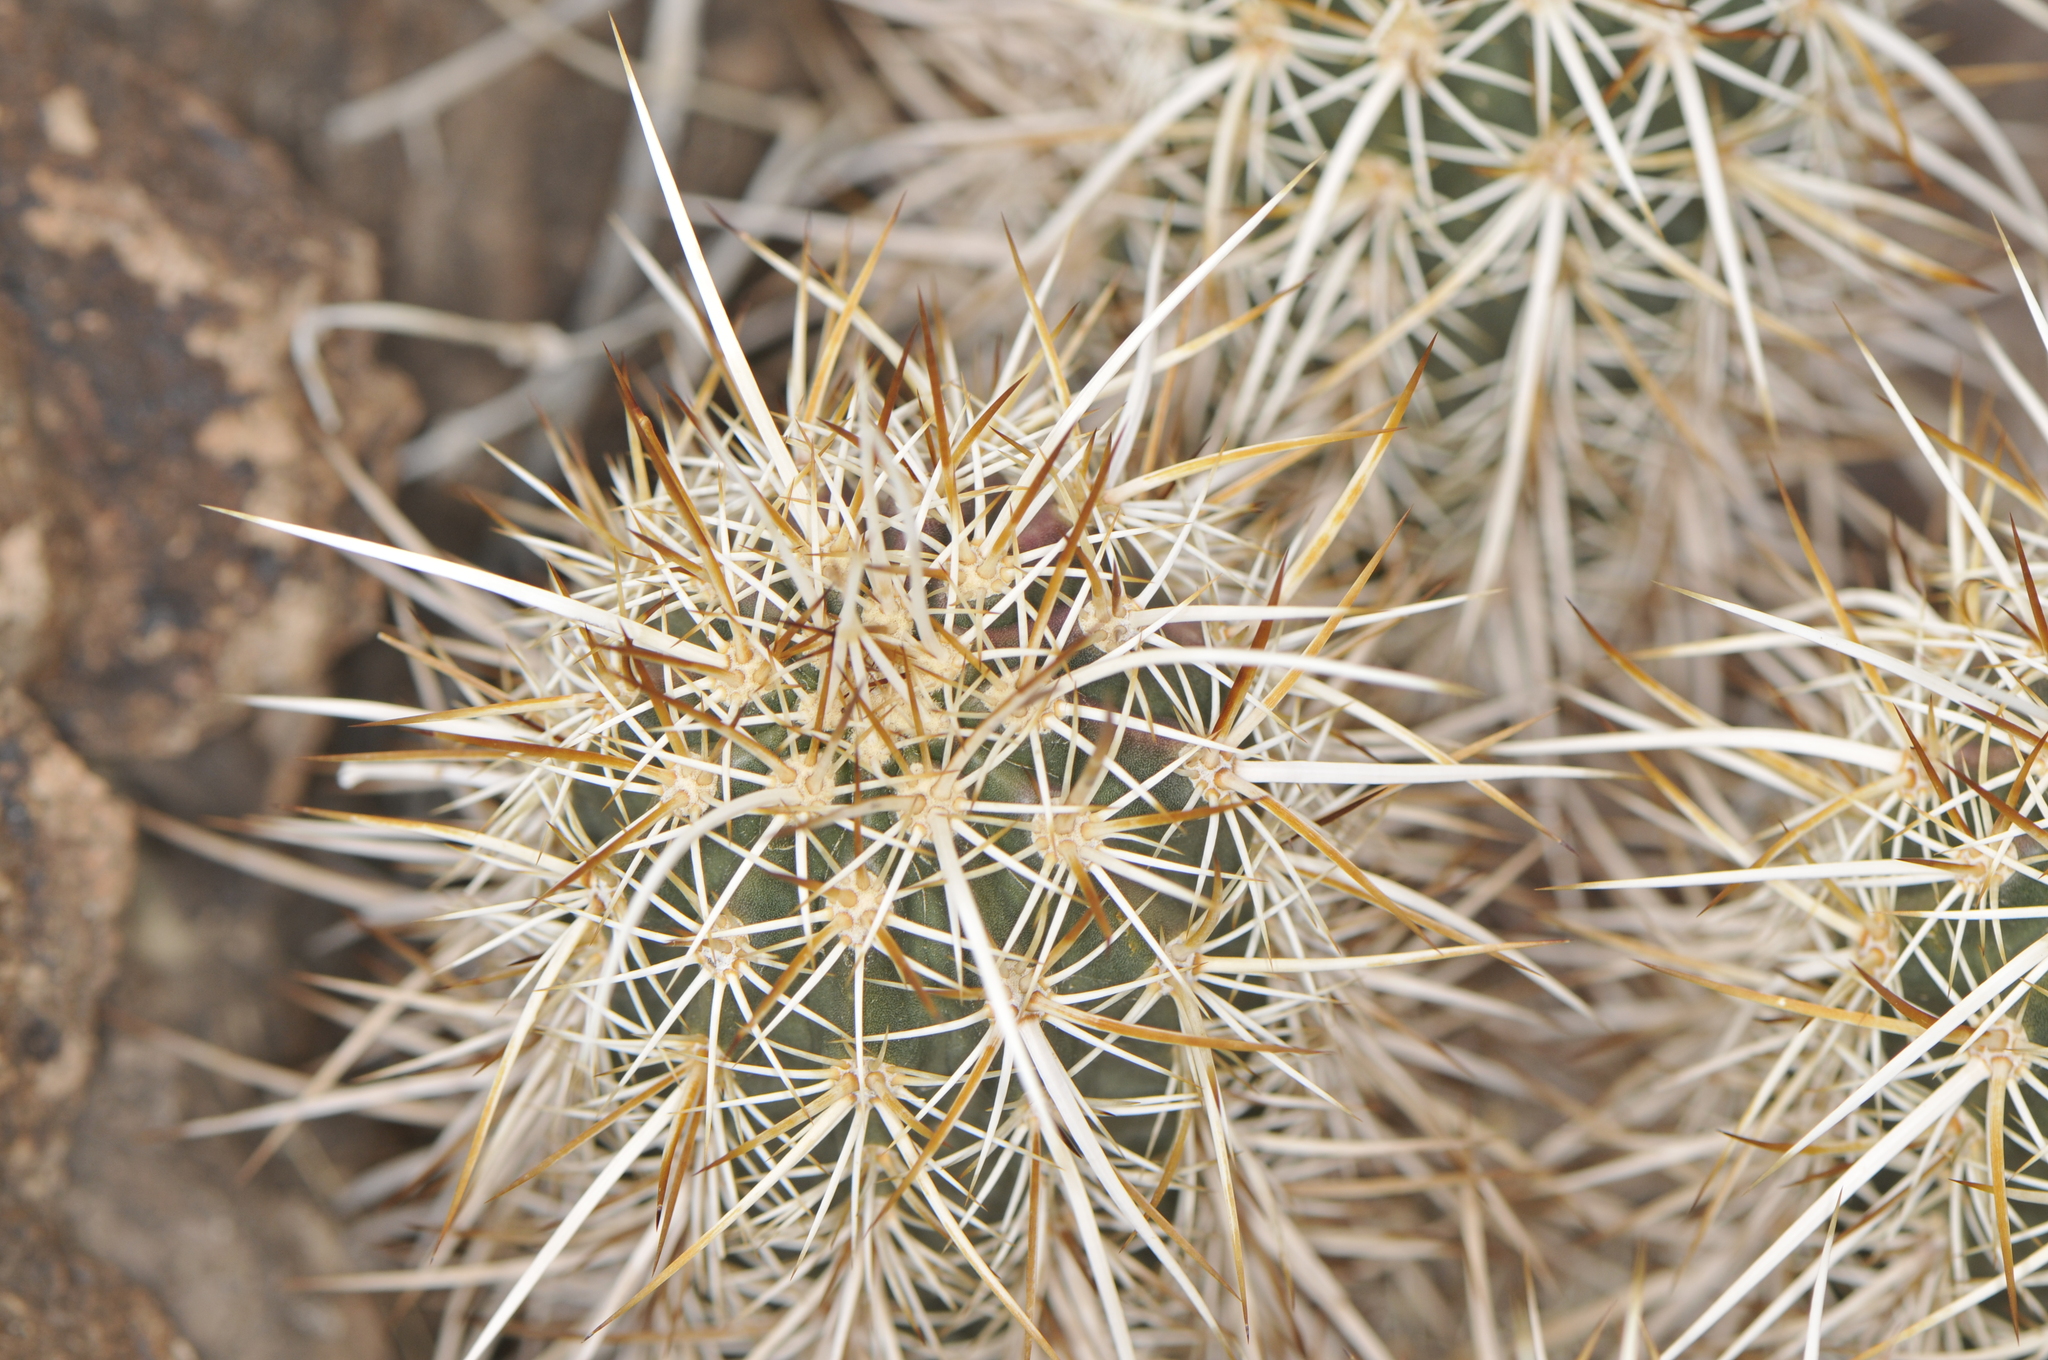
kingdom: Plantae
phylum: Tracheophyta
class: Magnoliopsida
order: Caryophyllales
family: Cactaceae
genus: Echinocereus
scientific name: Echinocereus engelmannii
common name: Engelmann's hedgehog cactus
